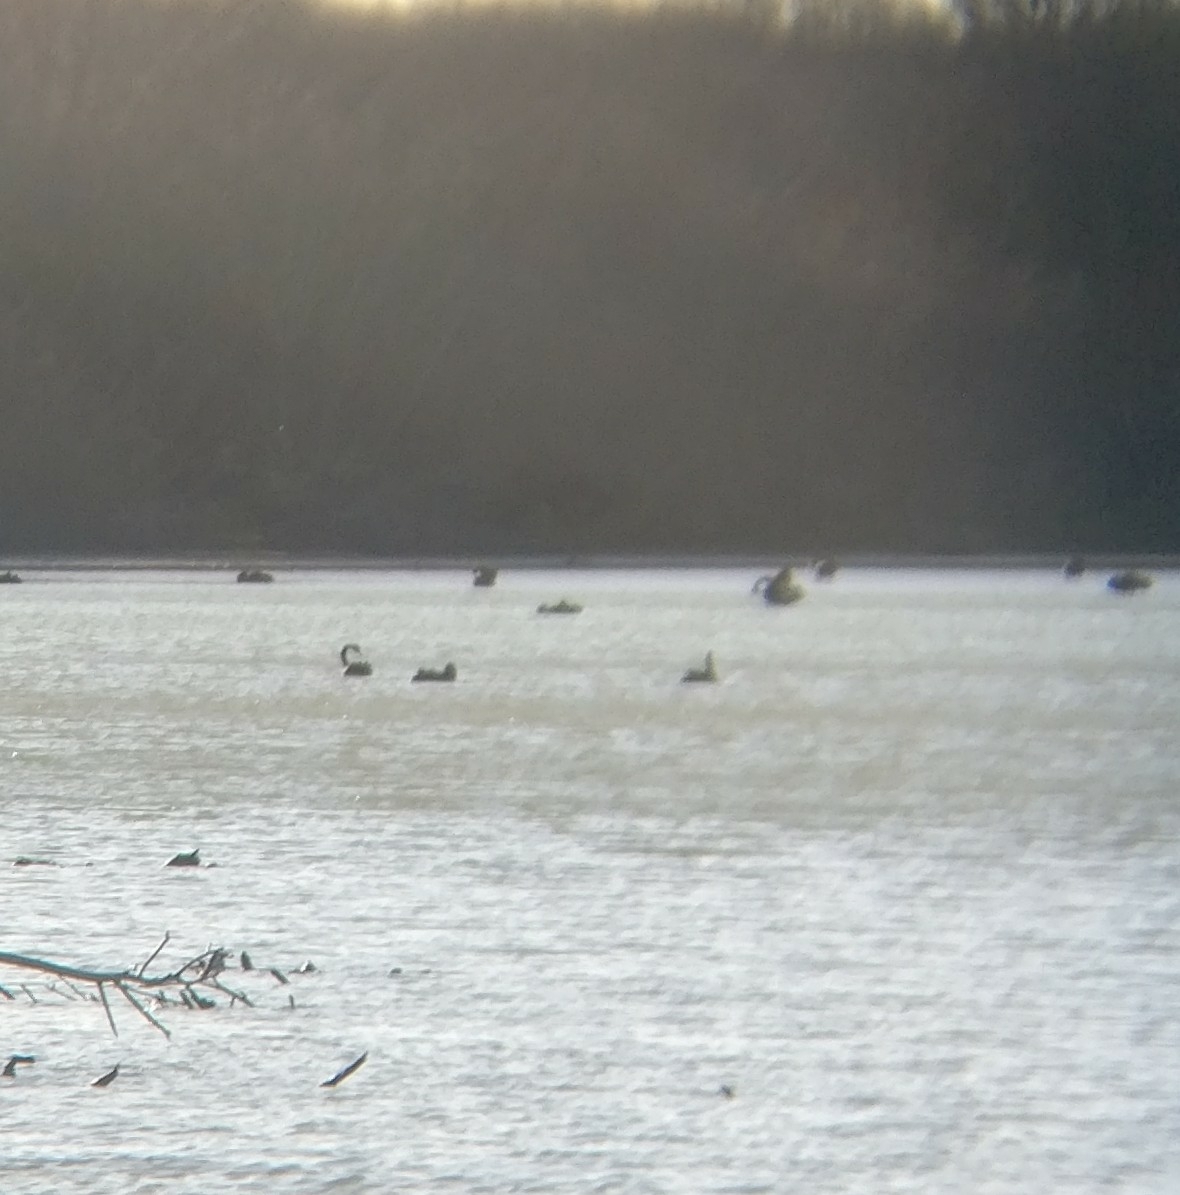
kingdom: Animalia
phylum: Chordata
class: Aves
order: Anseriformes
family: Anatidae
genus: Cygnus
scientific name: Cygnus atratus
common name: Black swan
